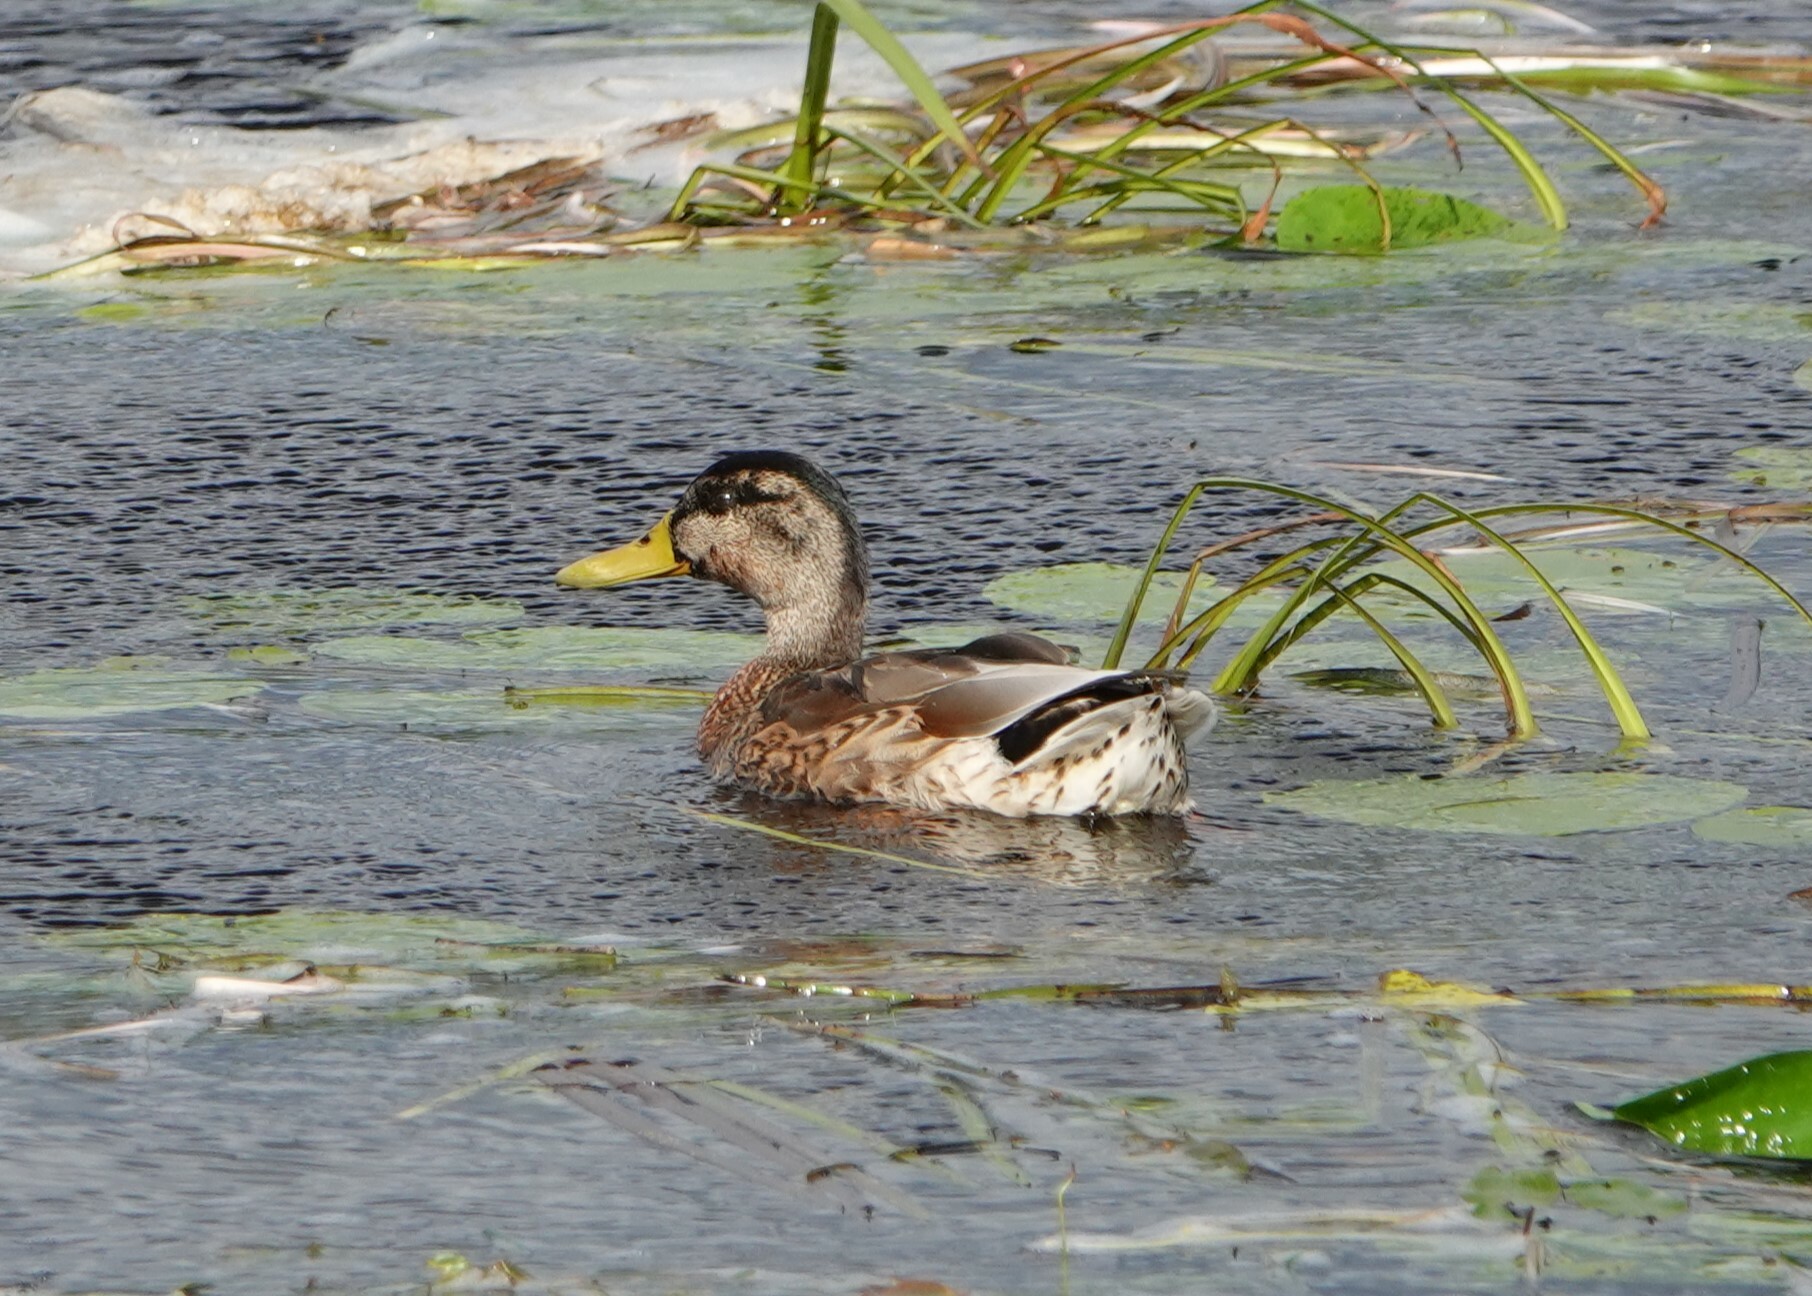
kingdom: Animalia
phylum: Chordata
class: Aves
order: Anseriformes
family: Anatidae
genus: Anas
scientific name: Anas platyrhynchos
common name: Mallard
